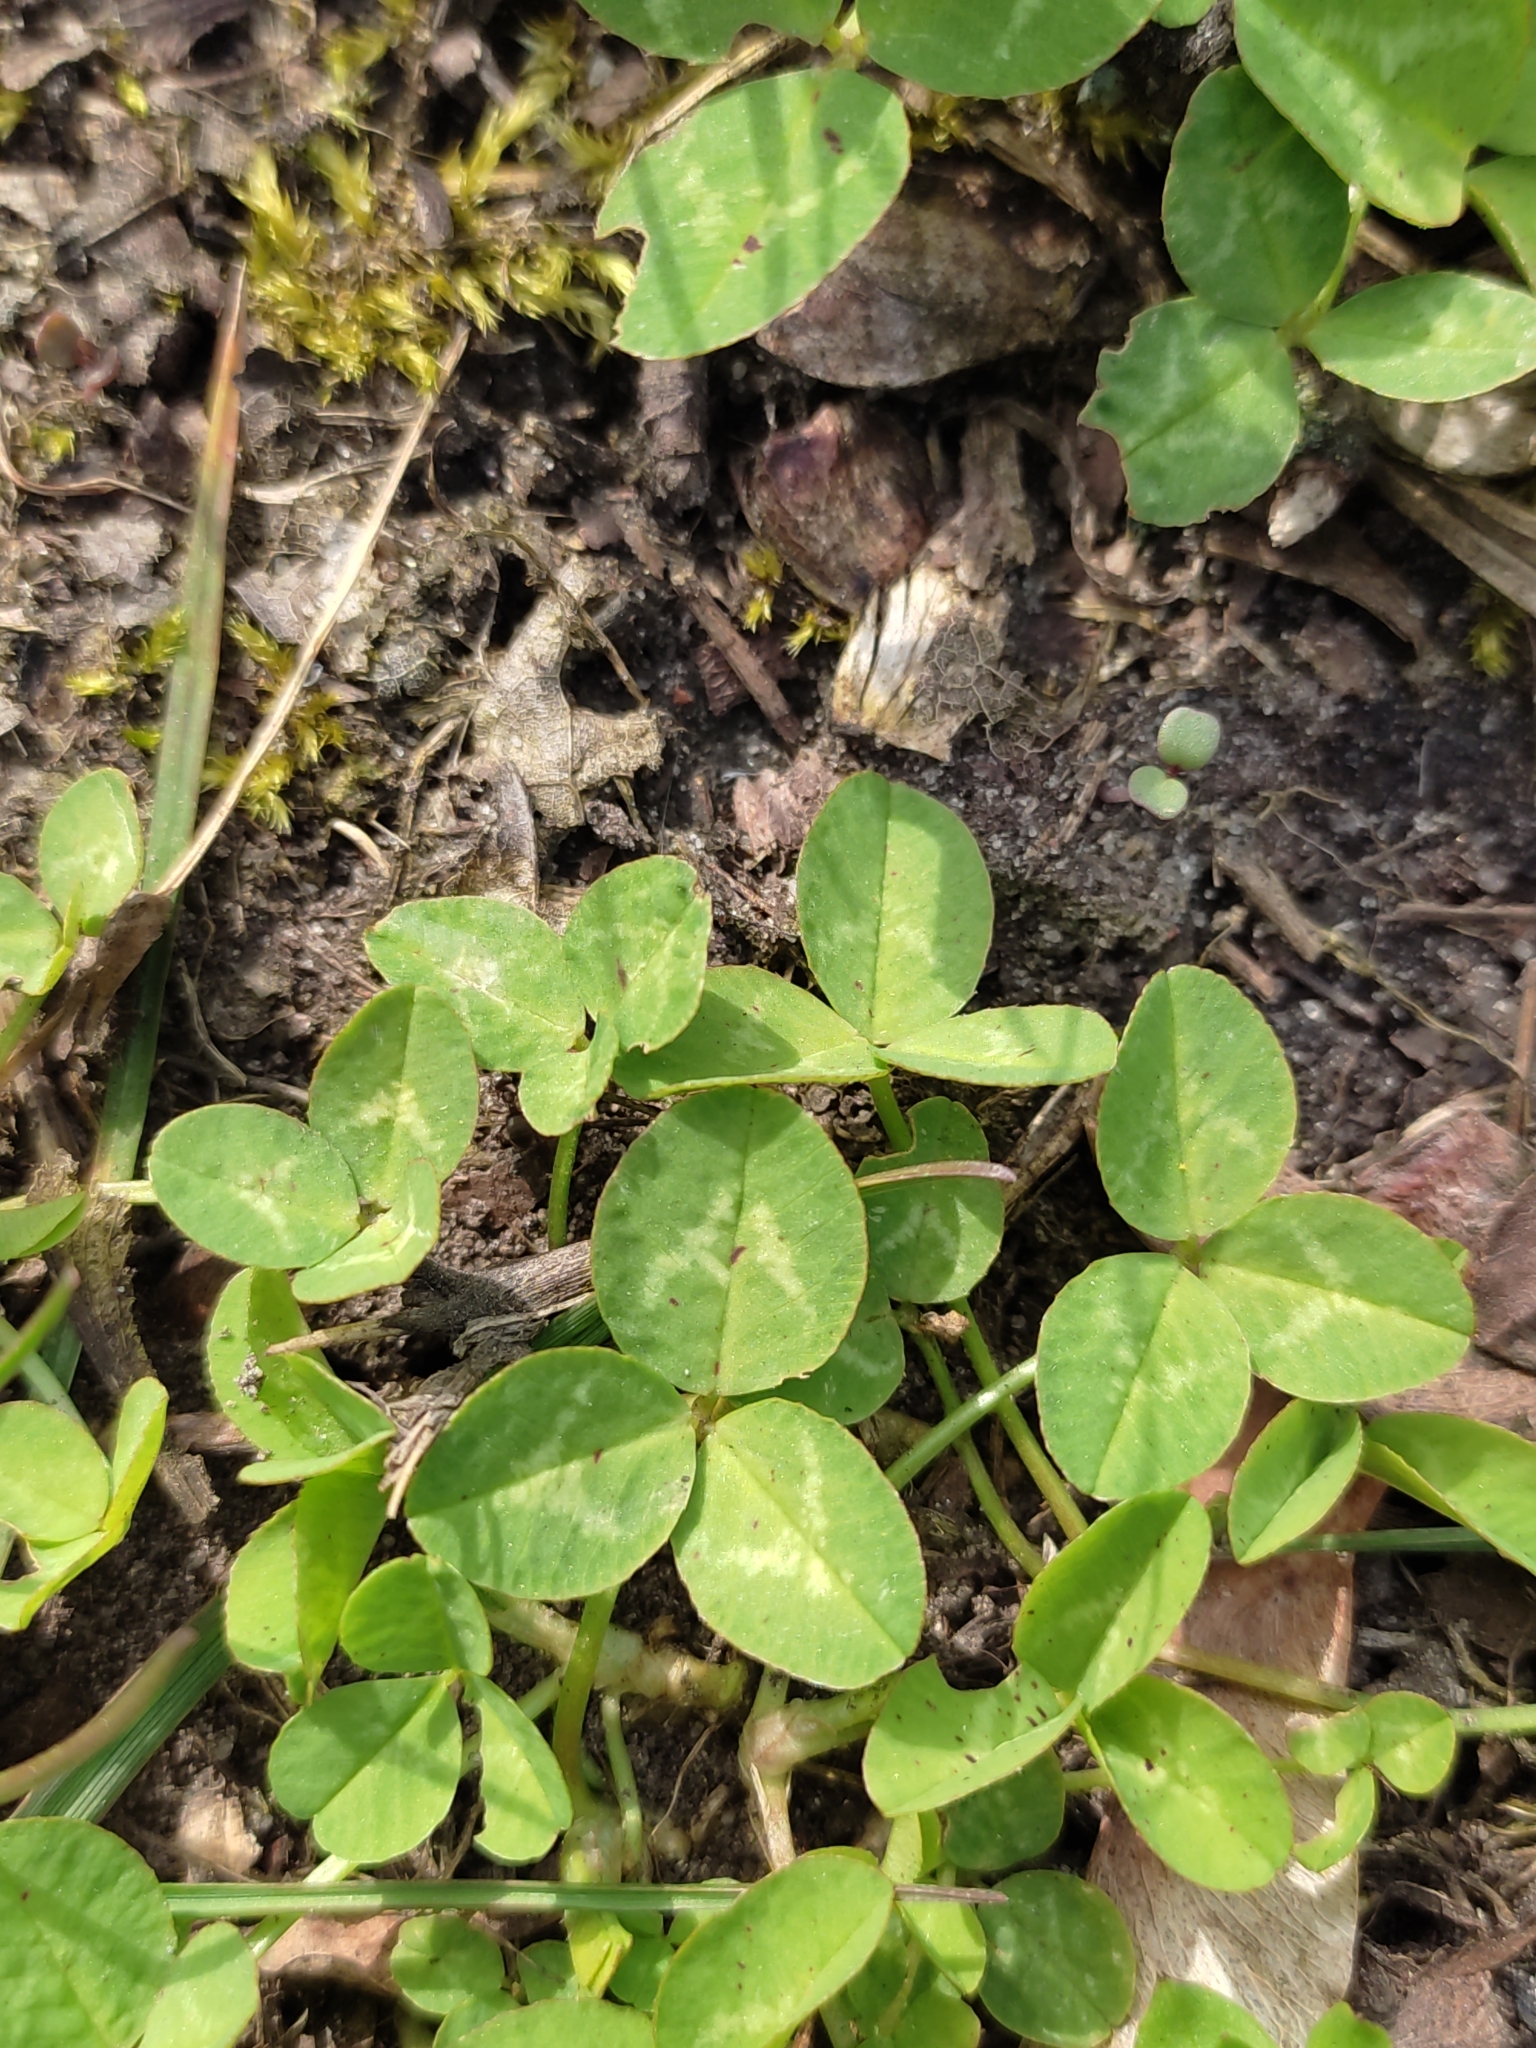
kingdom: Plantae
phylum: Tracheophyta
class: Magnoliopsida
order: Fabales
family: Fabaceae
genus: Trifolium
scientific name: Trifolium repens
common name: White clover
